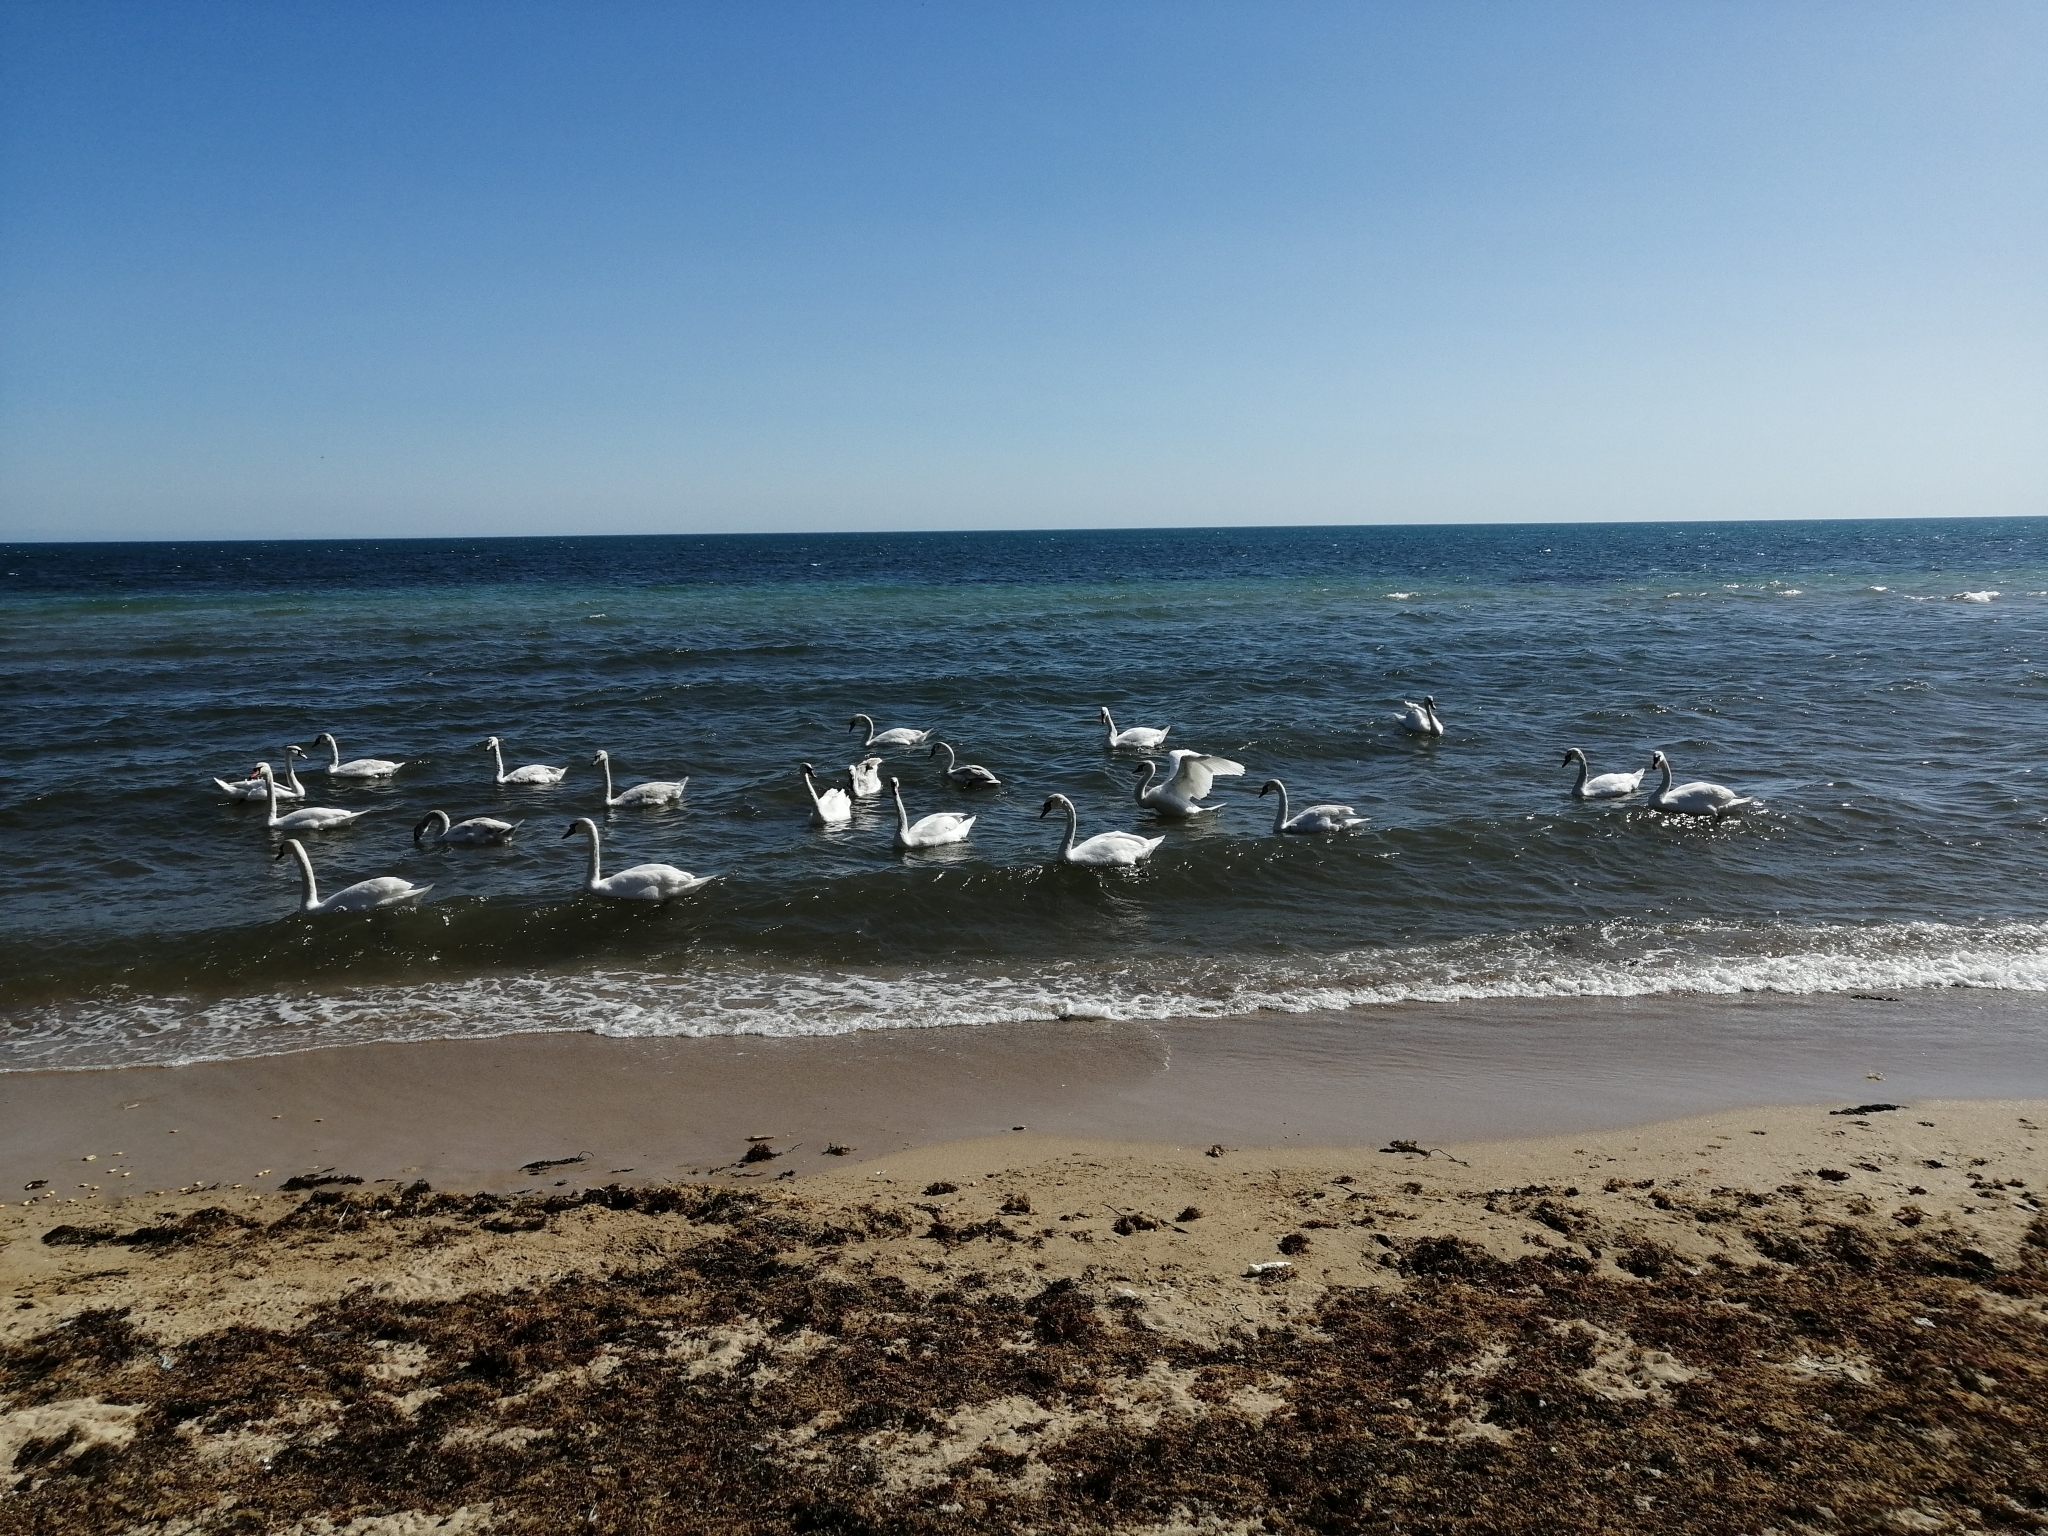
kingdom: Animalia
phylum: Chordata
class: Aves
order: Anseriformes
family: Anatidae
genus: Cygnus
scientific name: Cygnus olor
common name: Mute swan
